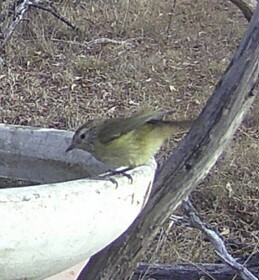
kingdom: Animalia
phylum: Chordata
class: Aves
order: Passeriformes
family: Acanthizidae
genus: Acanthiza
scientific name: Acanthiza lineata
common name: Striated thornbill
